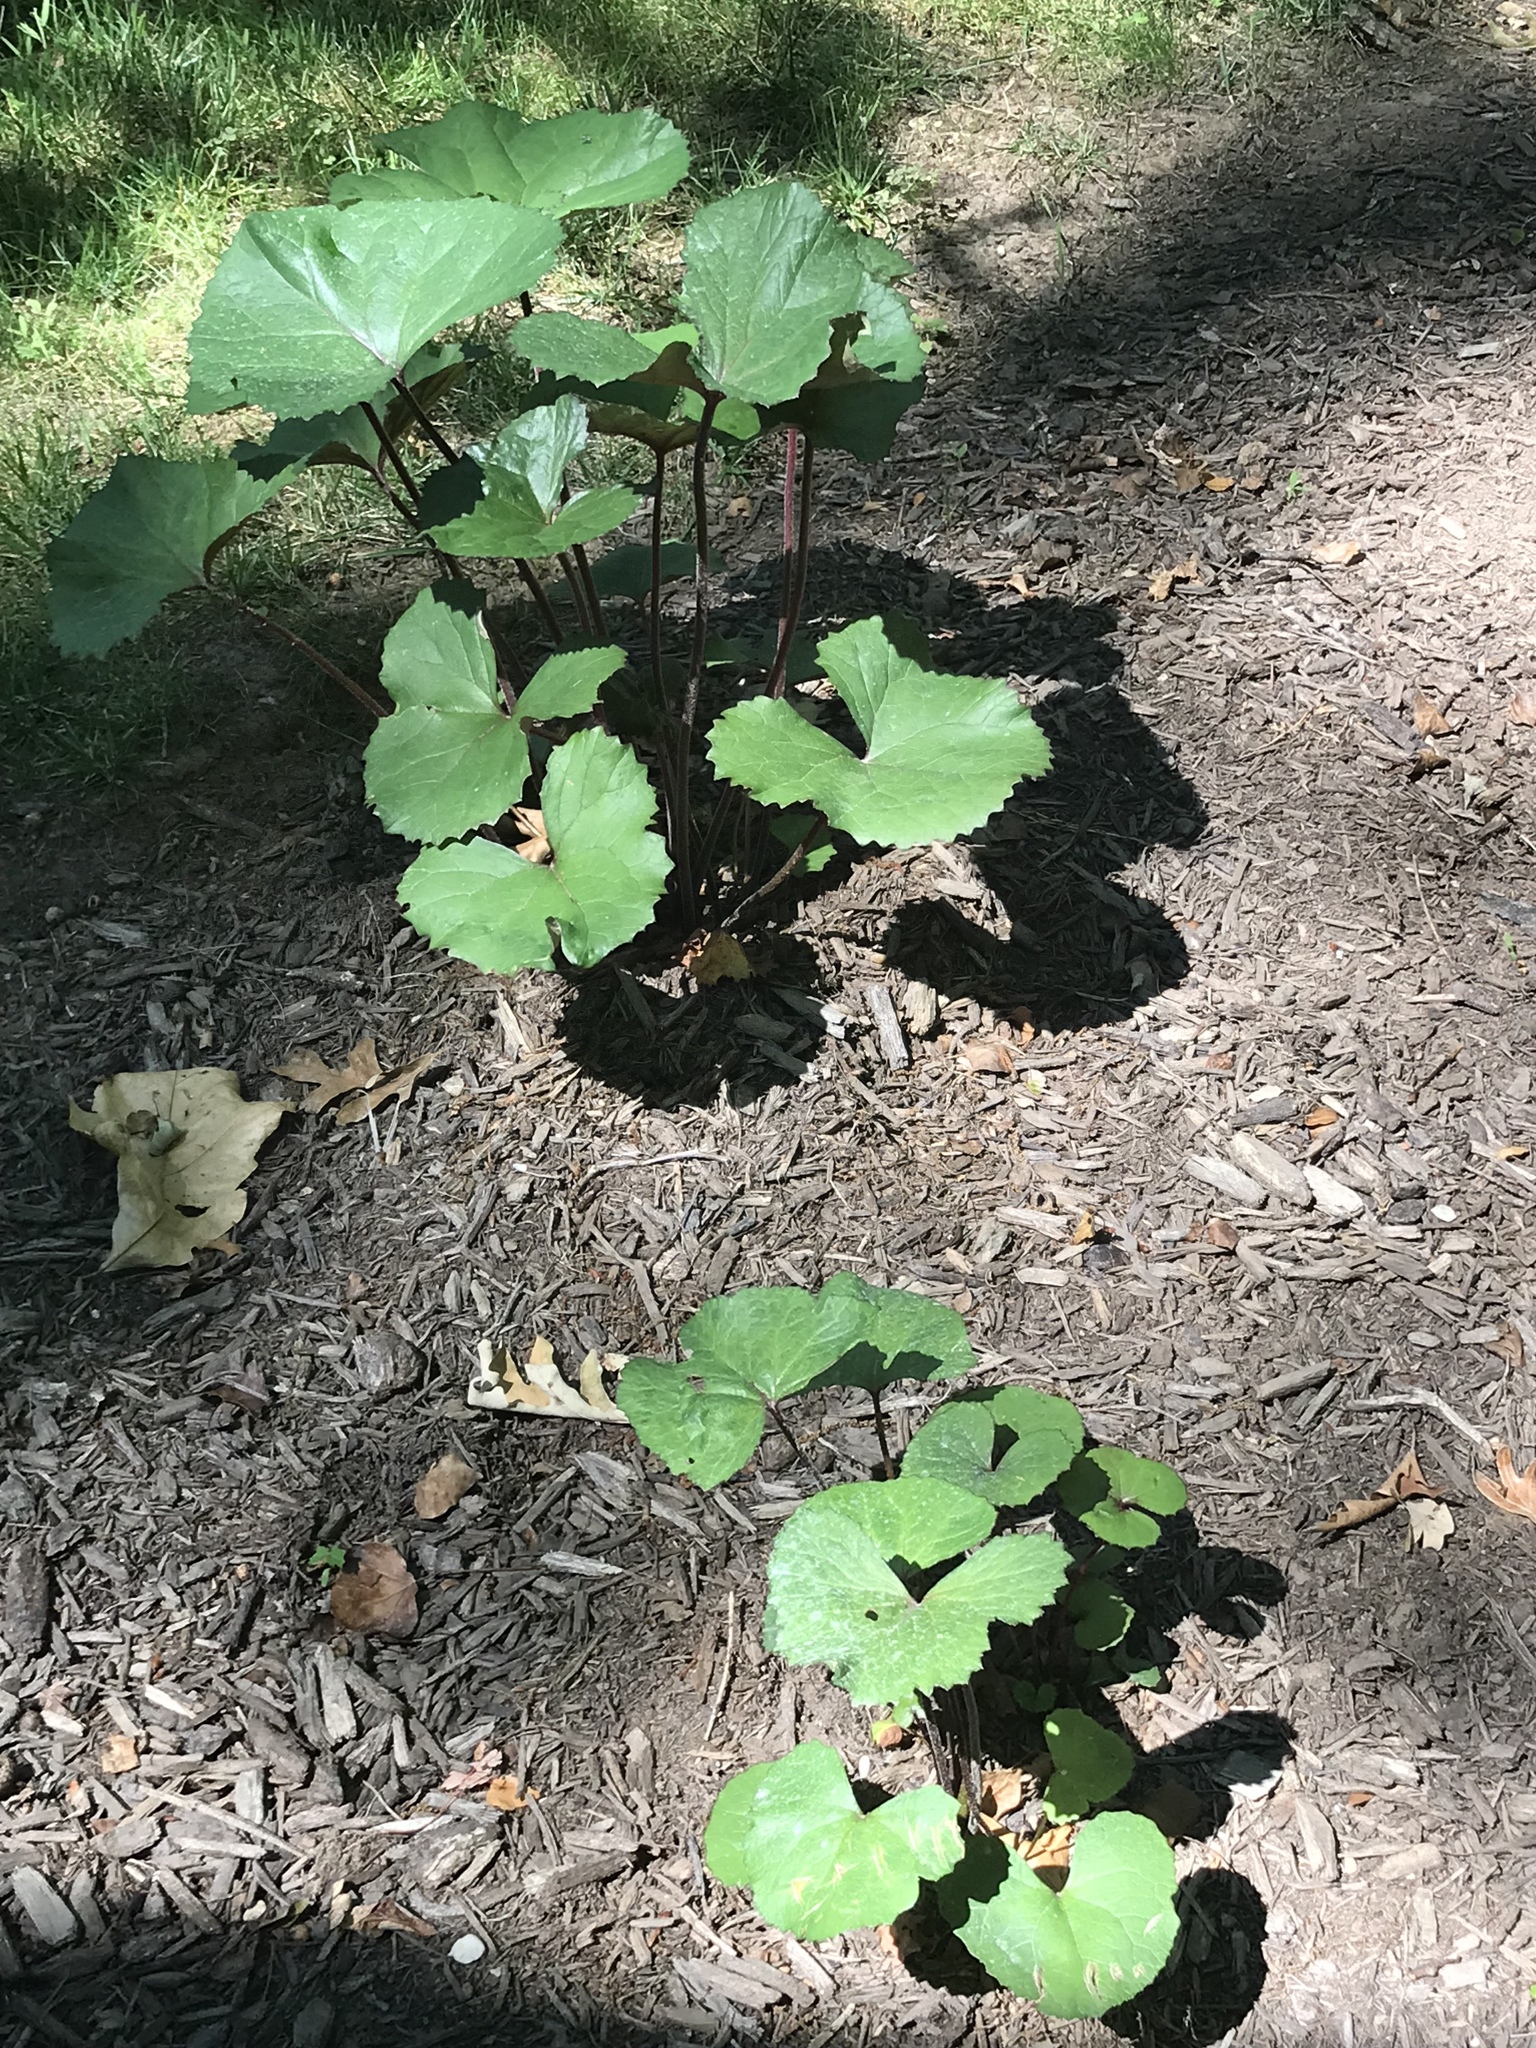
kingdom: Plantae
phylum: Tracheophyta
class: Magnoliopsida
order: Asterales
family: Asteraceae
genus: Packera
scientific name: Packera aurea
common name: Golden groundsel
